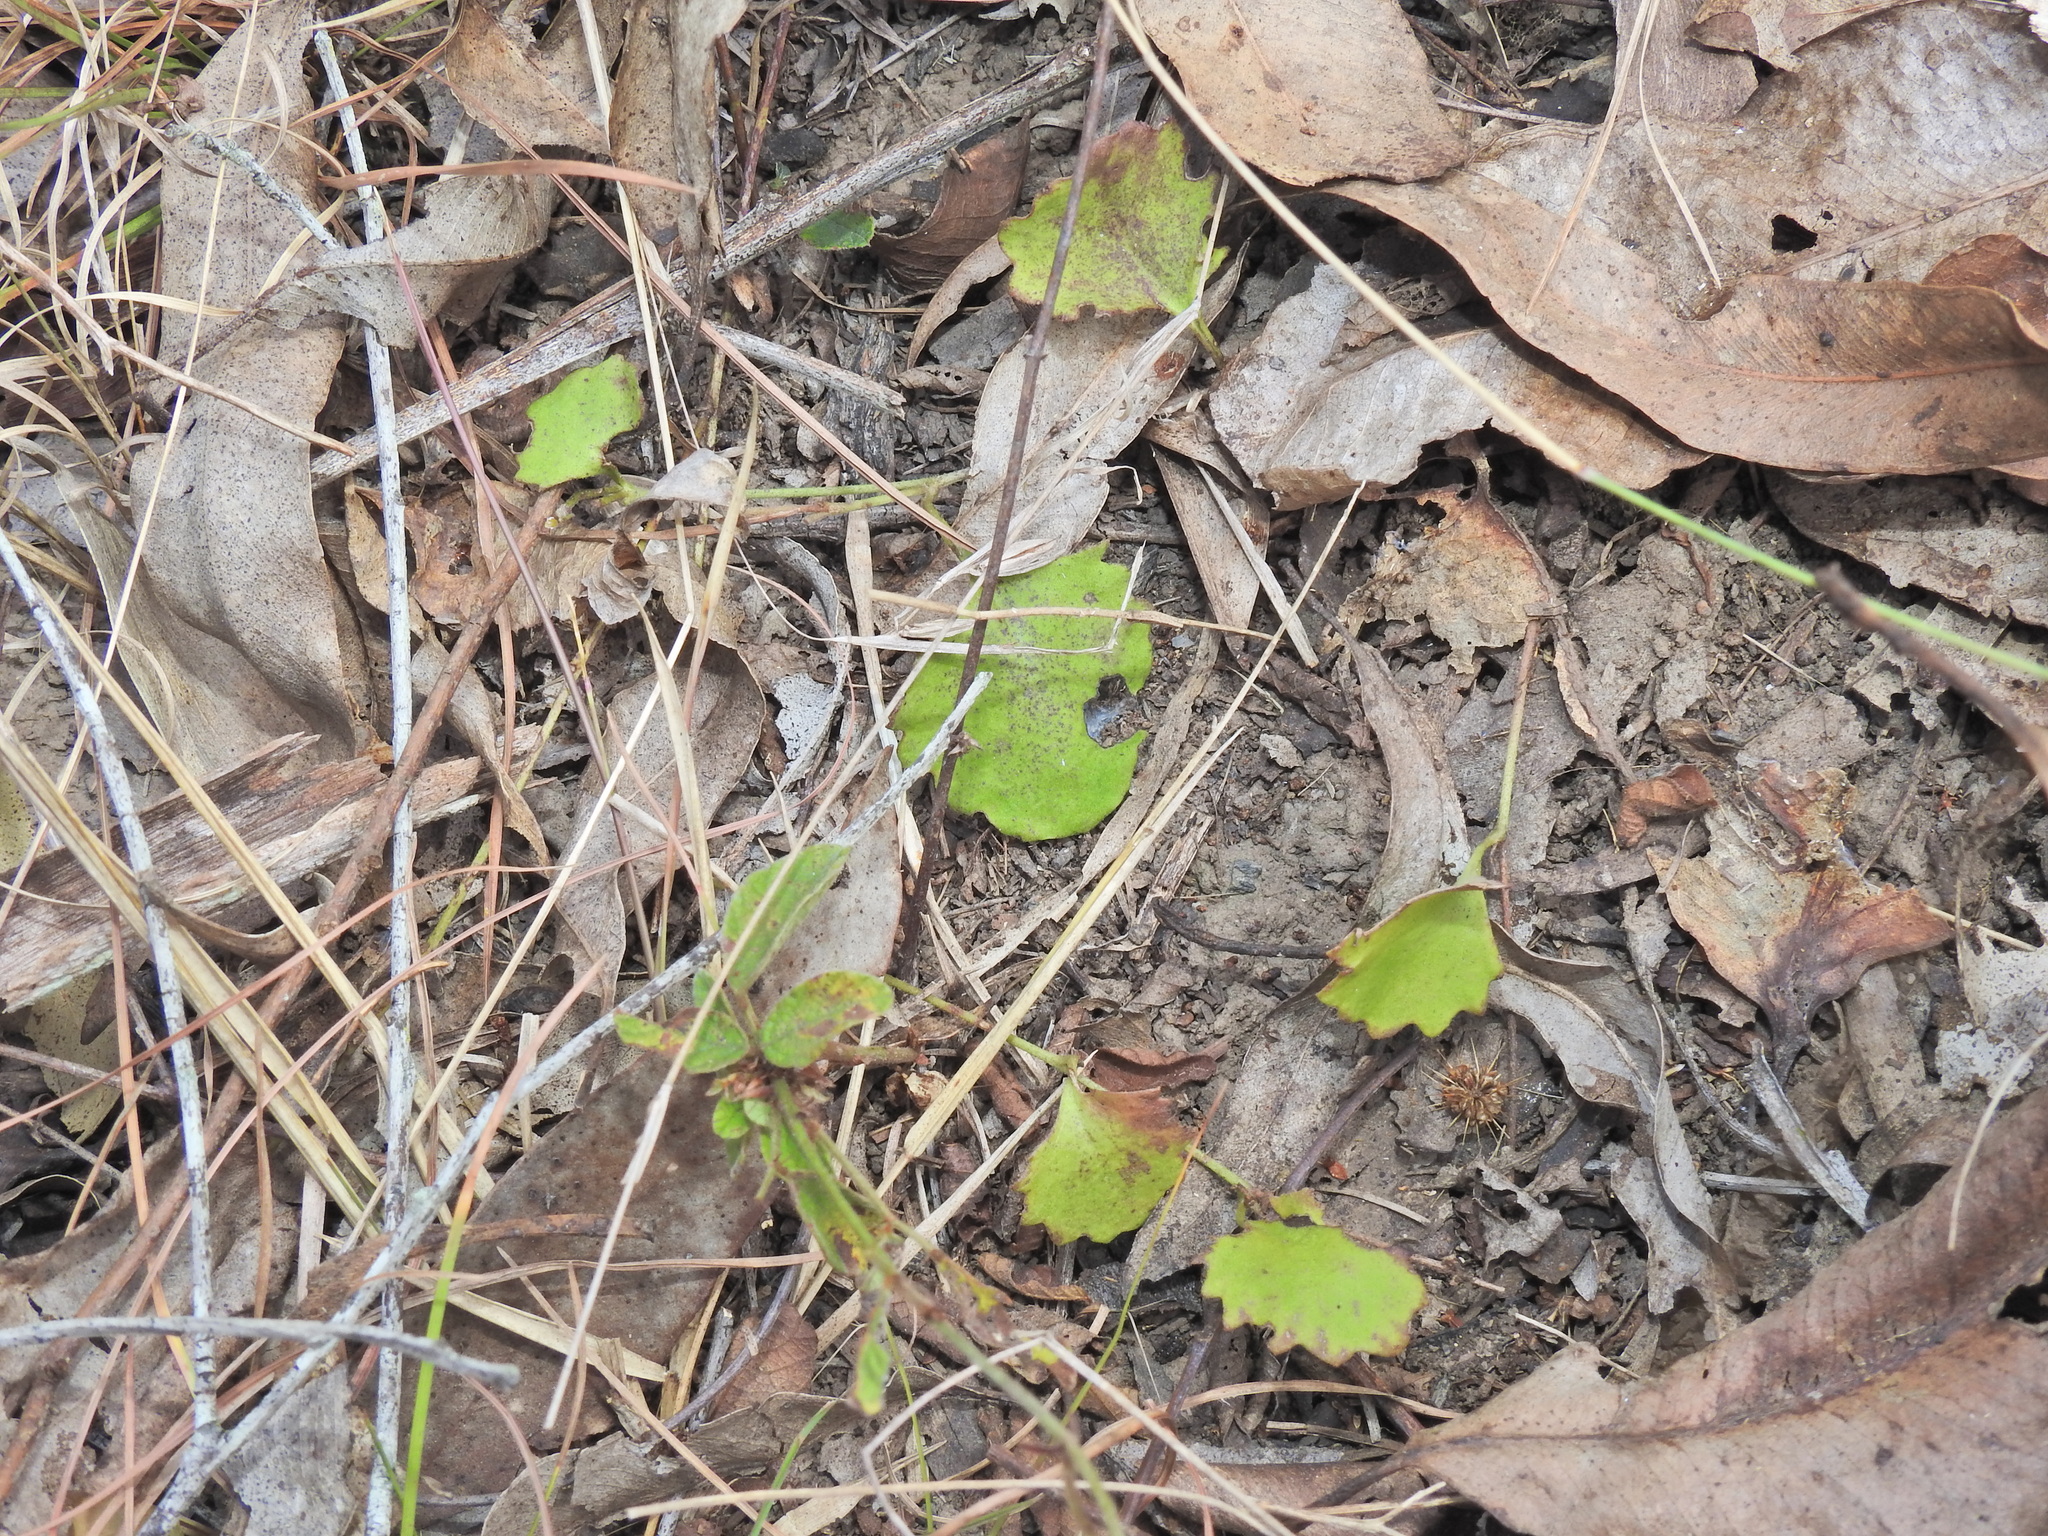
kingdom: Plantae
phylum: Tracheophyta
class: Magnoliopsida
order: Asterales
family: Goodeniaceae
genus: Goodenia
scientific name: Goodenia rotundifolia
